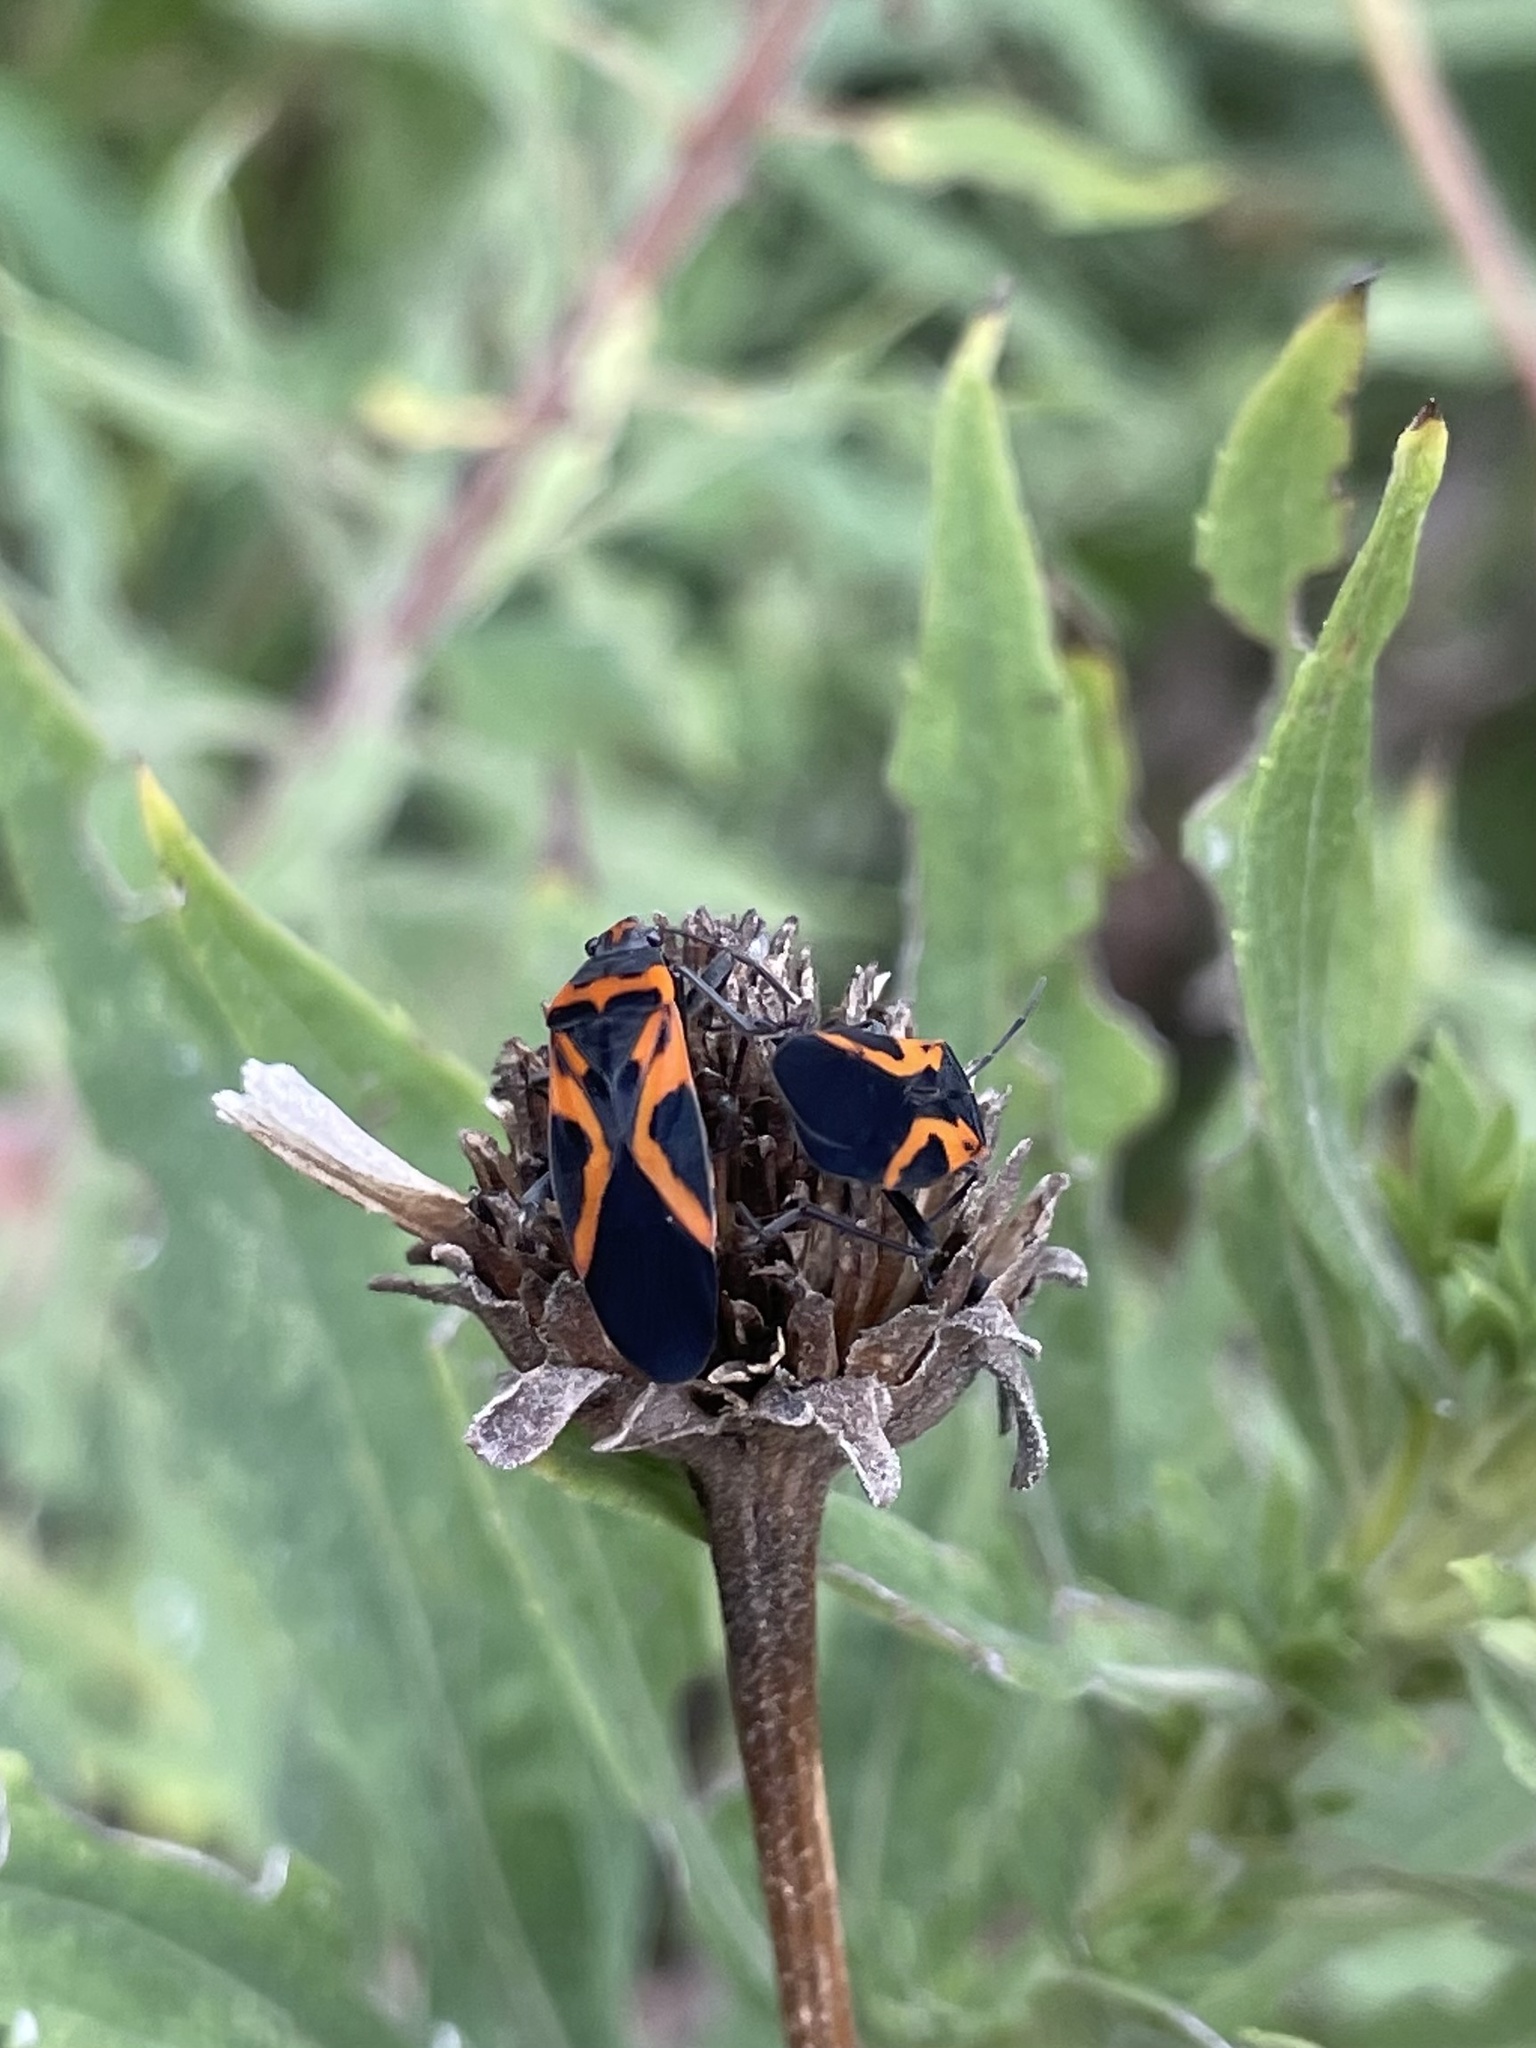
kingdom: Animalia
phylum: Arthropoda
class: Insecta
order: Hemiptera
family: Lygaeidae
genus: Lygaeus
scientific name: Lygaeus turcicus
